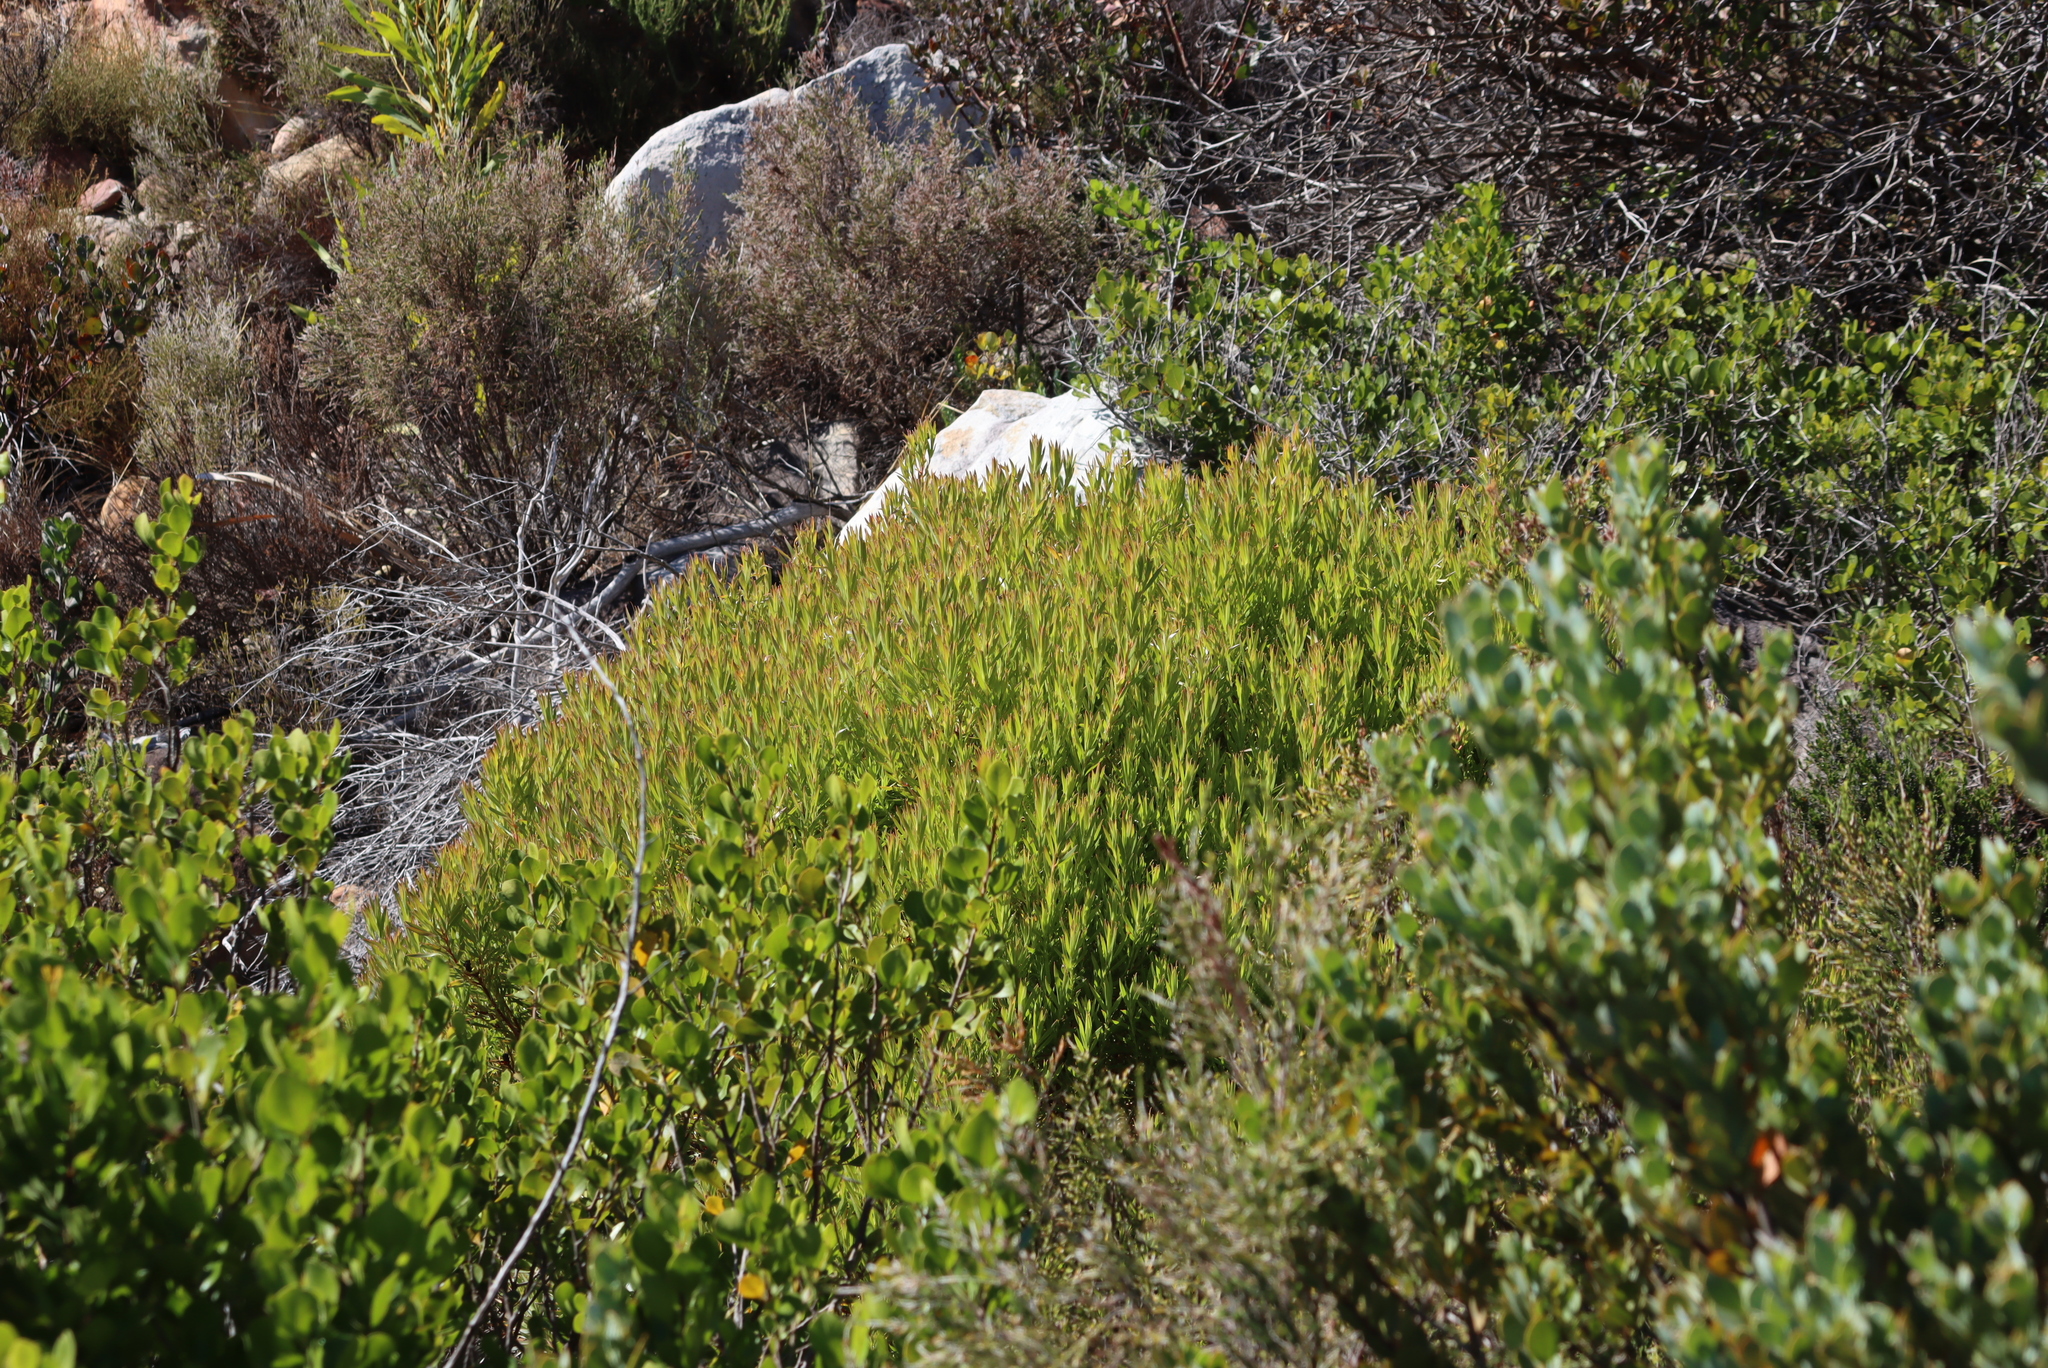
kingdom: Plantae
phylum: Tracheophyta
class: Magnoliopsida
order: Proteales
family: Proteaceae
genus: Leucadendron
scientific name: Leucadendron xanthoconus
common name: Sickle-leaf conebush
